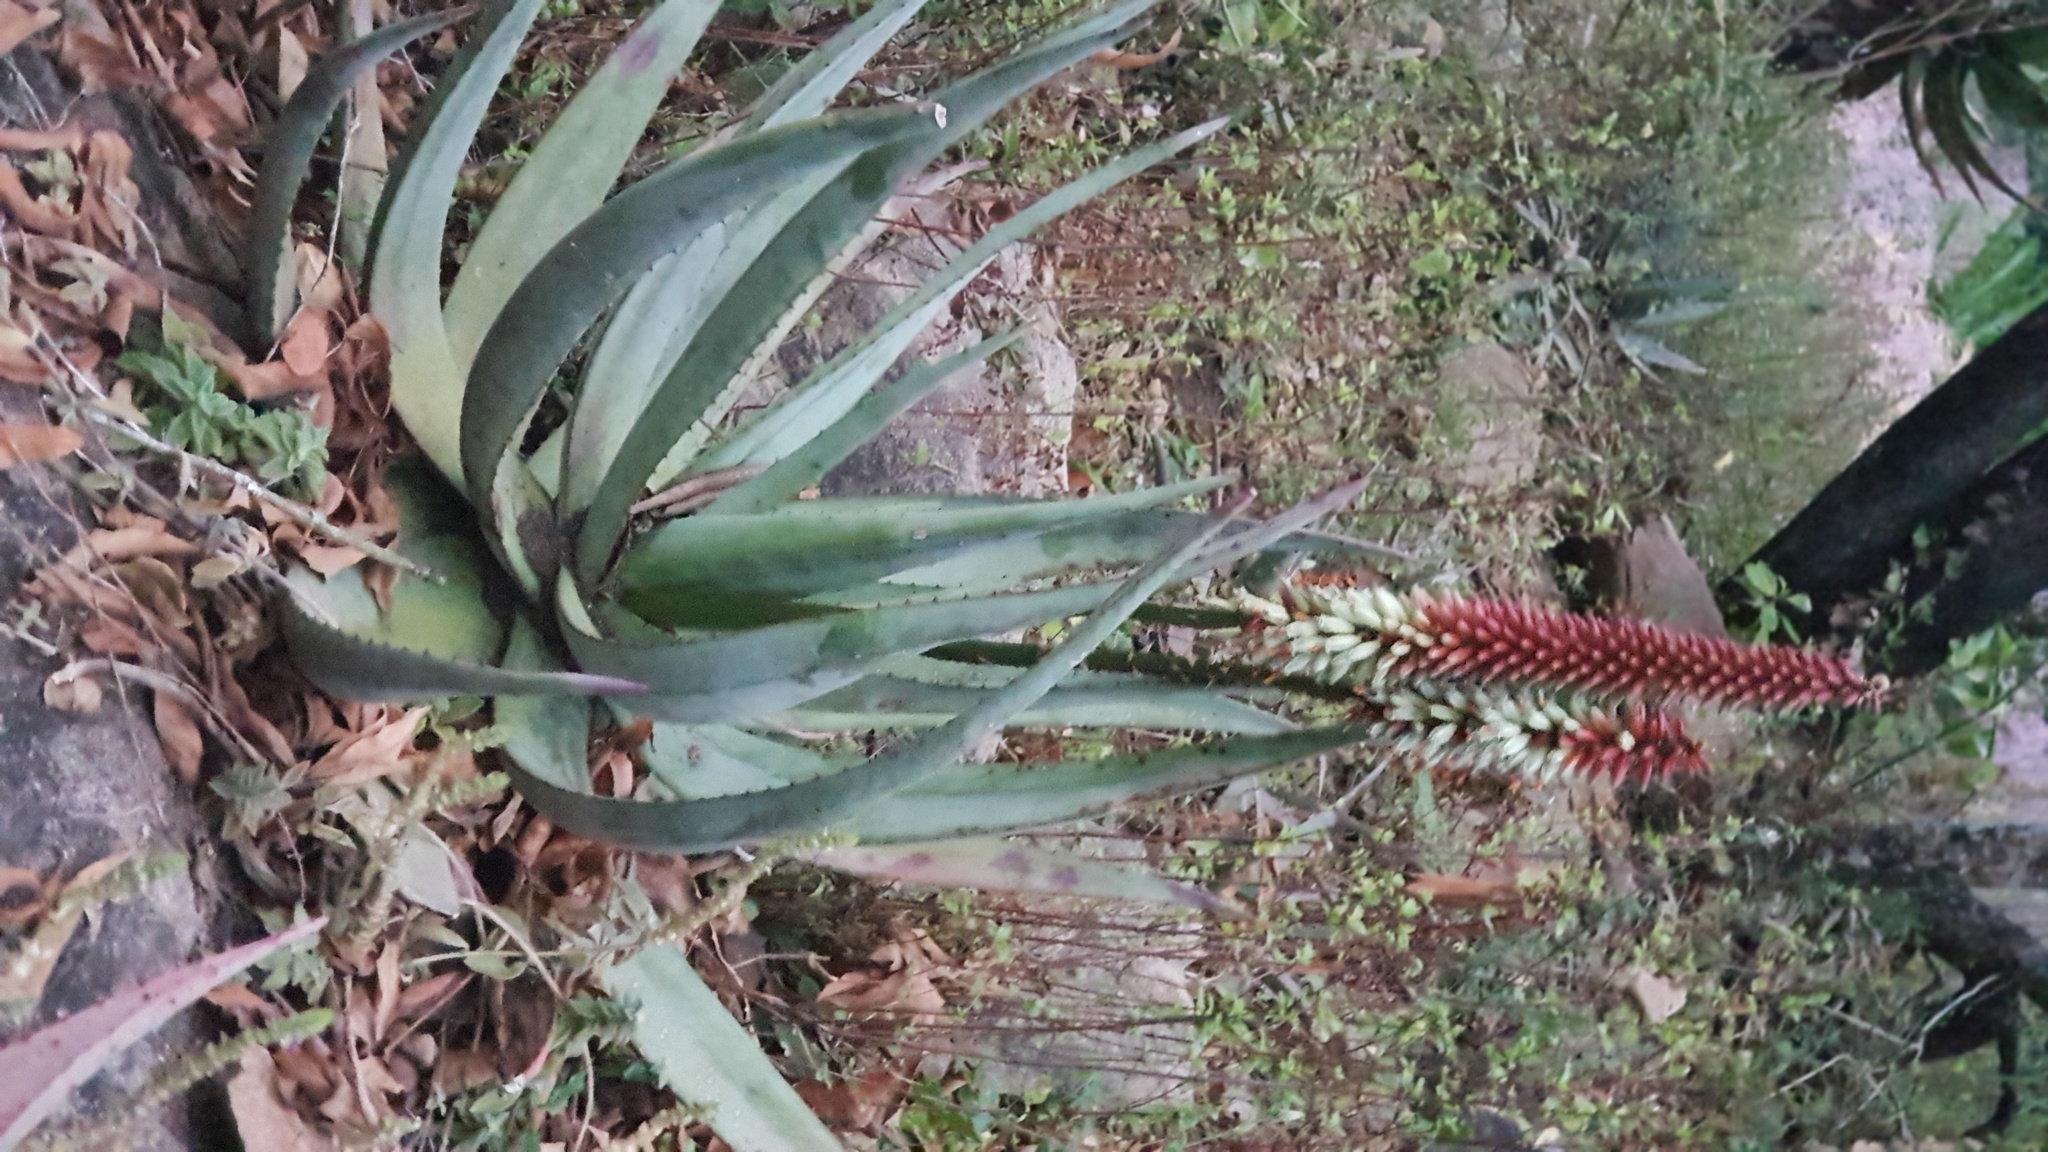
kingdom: Plantae
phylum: Tracheophyta
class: Liliopsida
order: Asparagales
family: Asphodelaceae
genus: Aloe
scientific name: Aloe petricola
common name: Rock aloe
